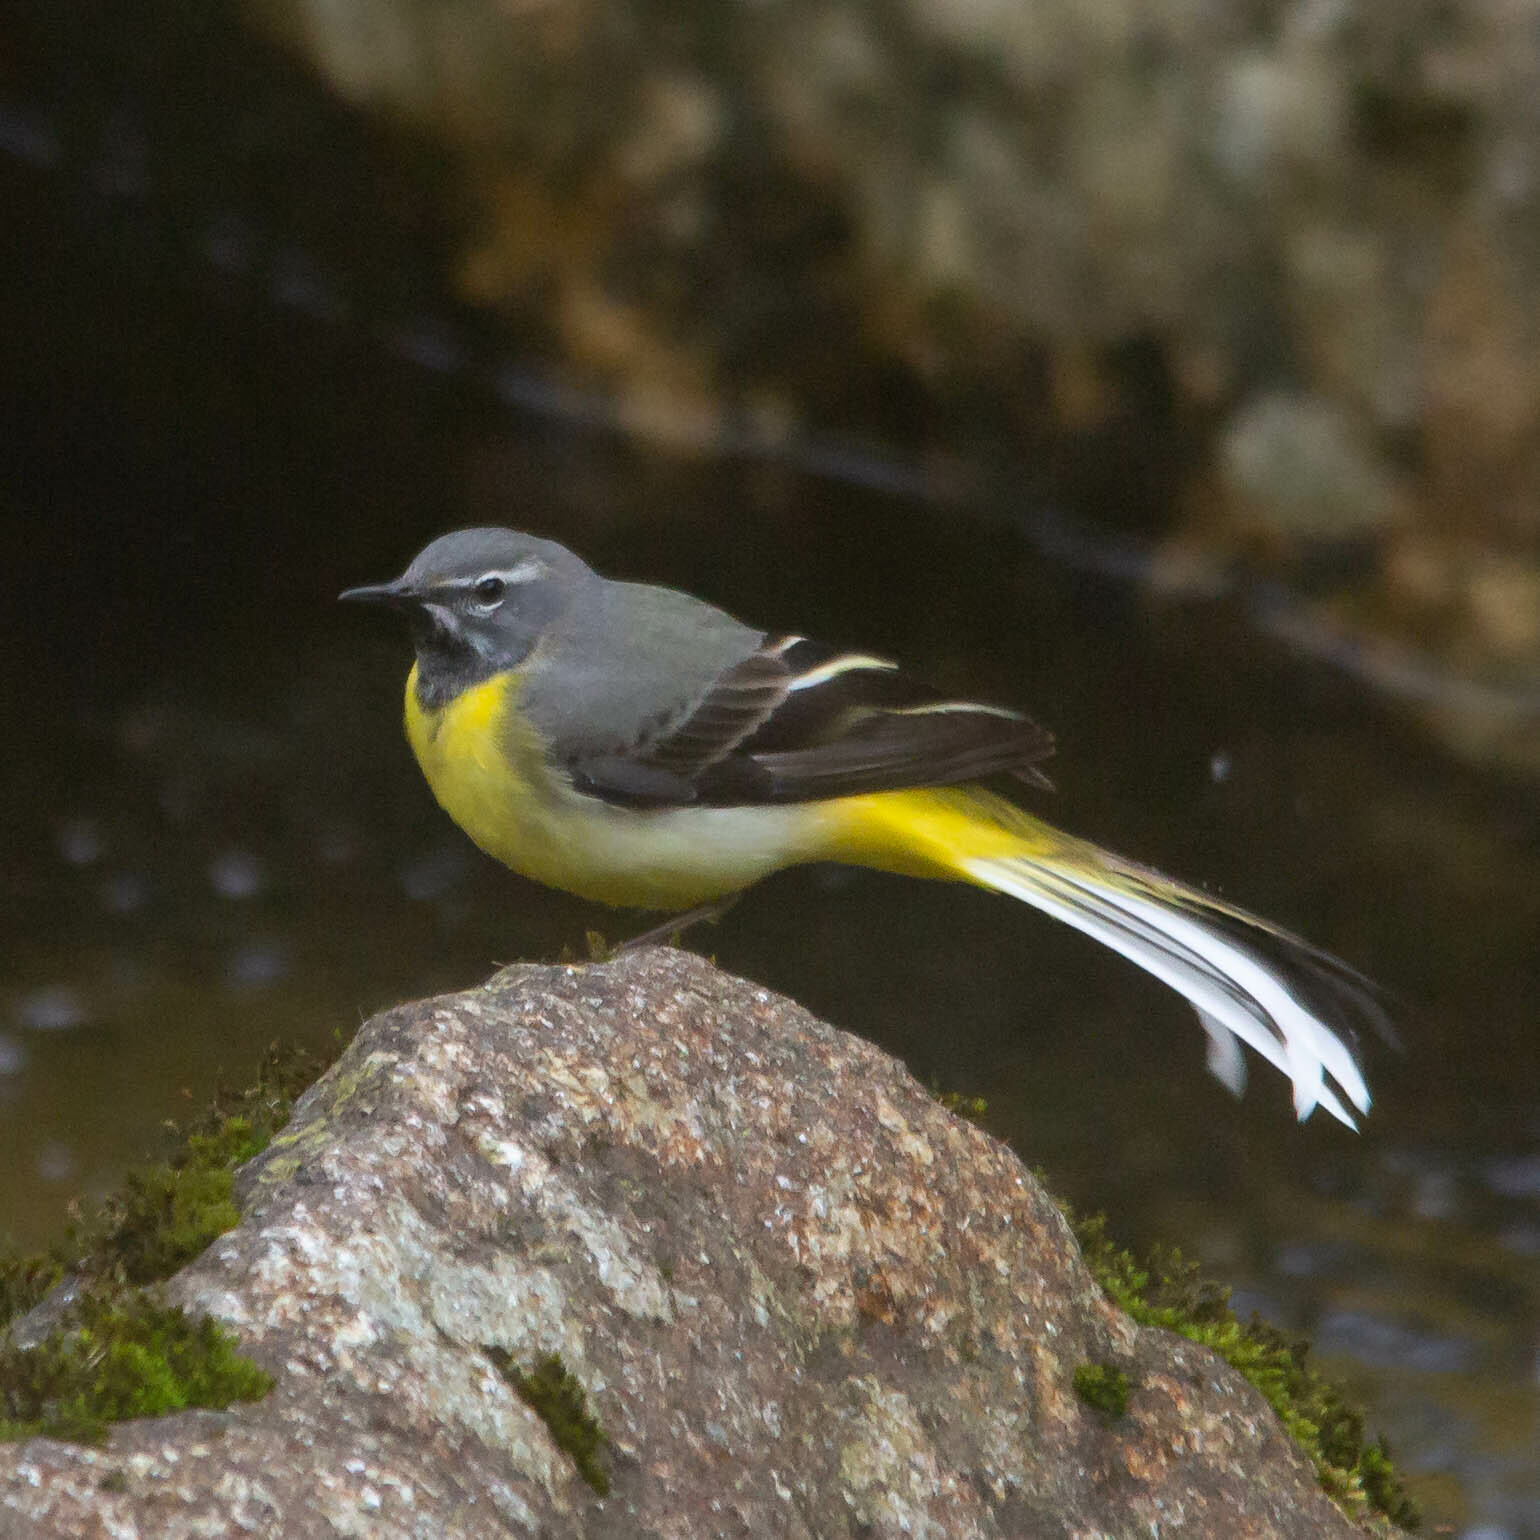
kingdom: Animalia
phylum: Chordata
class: Aves
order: Passeriformes
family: Motacillidae
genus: Motacilla
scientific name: Motacilla cinerea
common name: Grey wagtail
